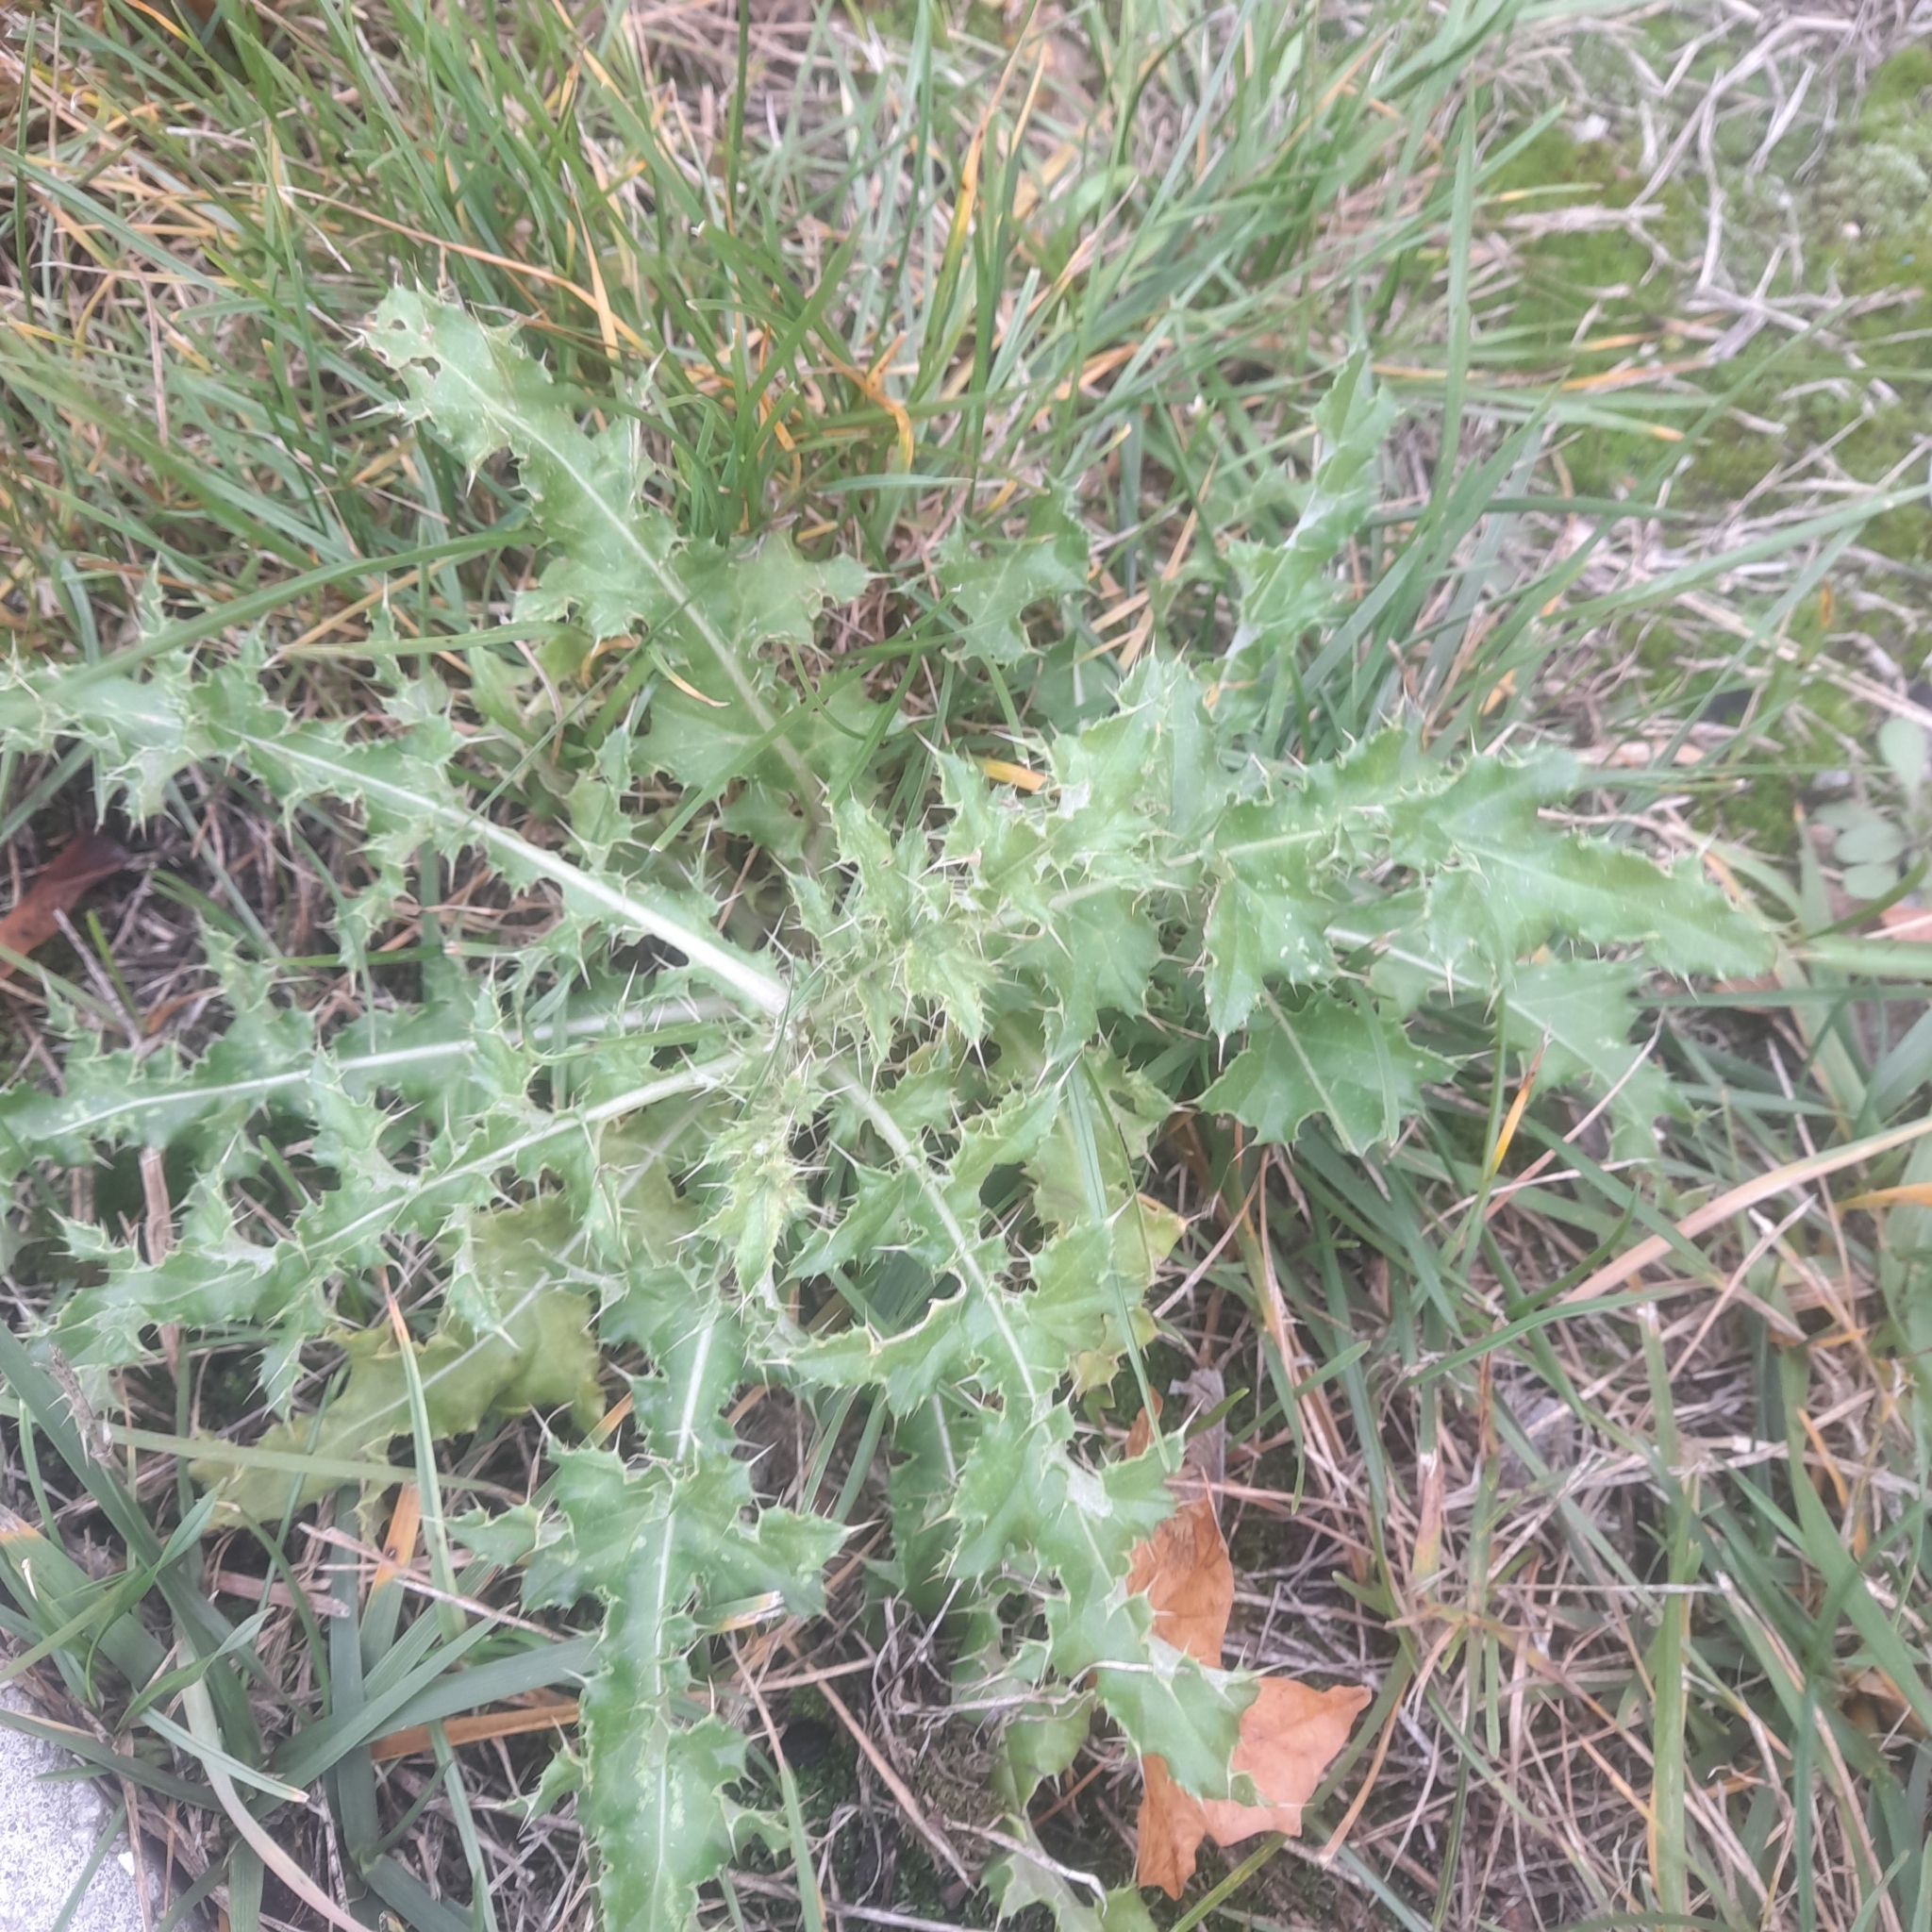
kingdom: Plantae
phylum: Tracheophyta
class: Magnoliopsida
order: Asterales
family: Asteraceae
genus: Cirsium
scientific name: Cirsium arvense
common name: Creeping thistle
